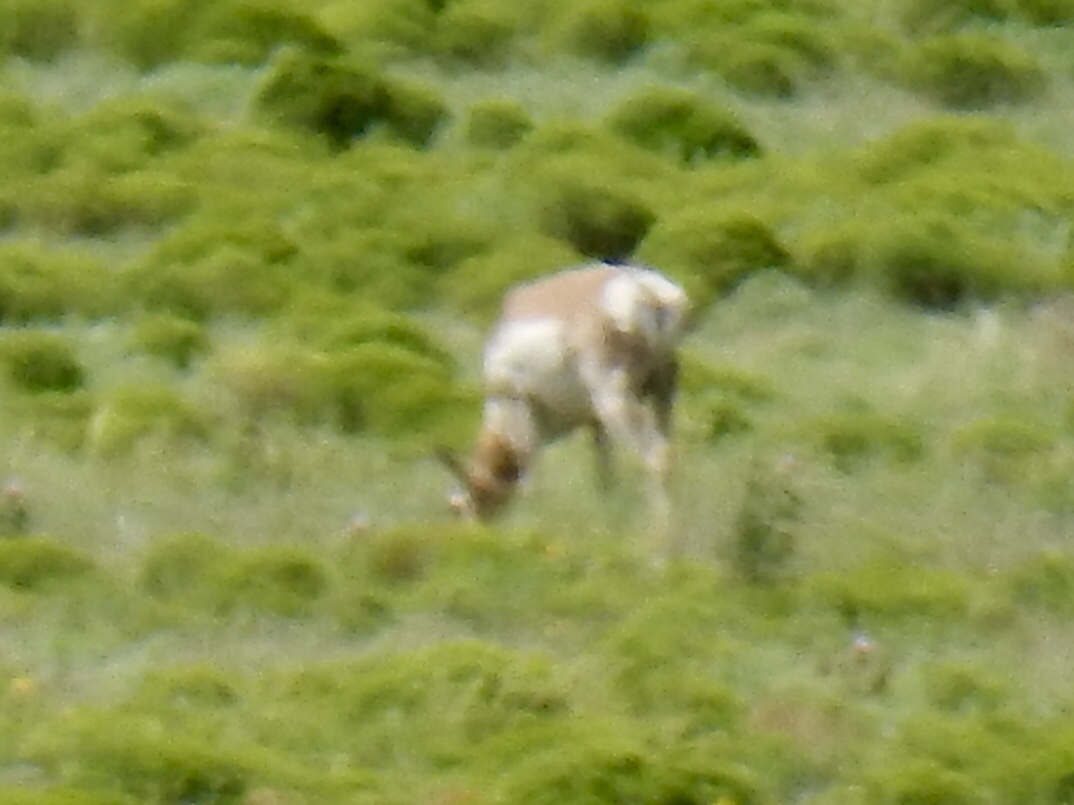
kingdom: Animalia
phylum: Chordata
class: Mammalia
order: Artiodactyla
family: Antilocapridae
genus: Antilocapra
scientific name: Antilocapra americana
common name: Pronghorn
